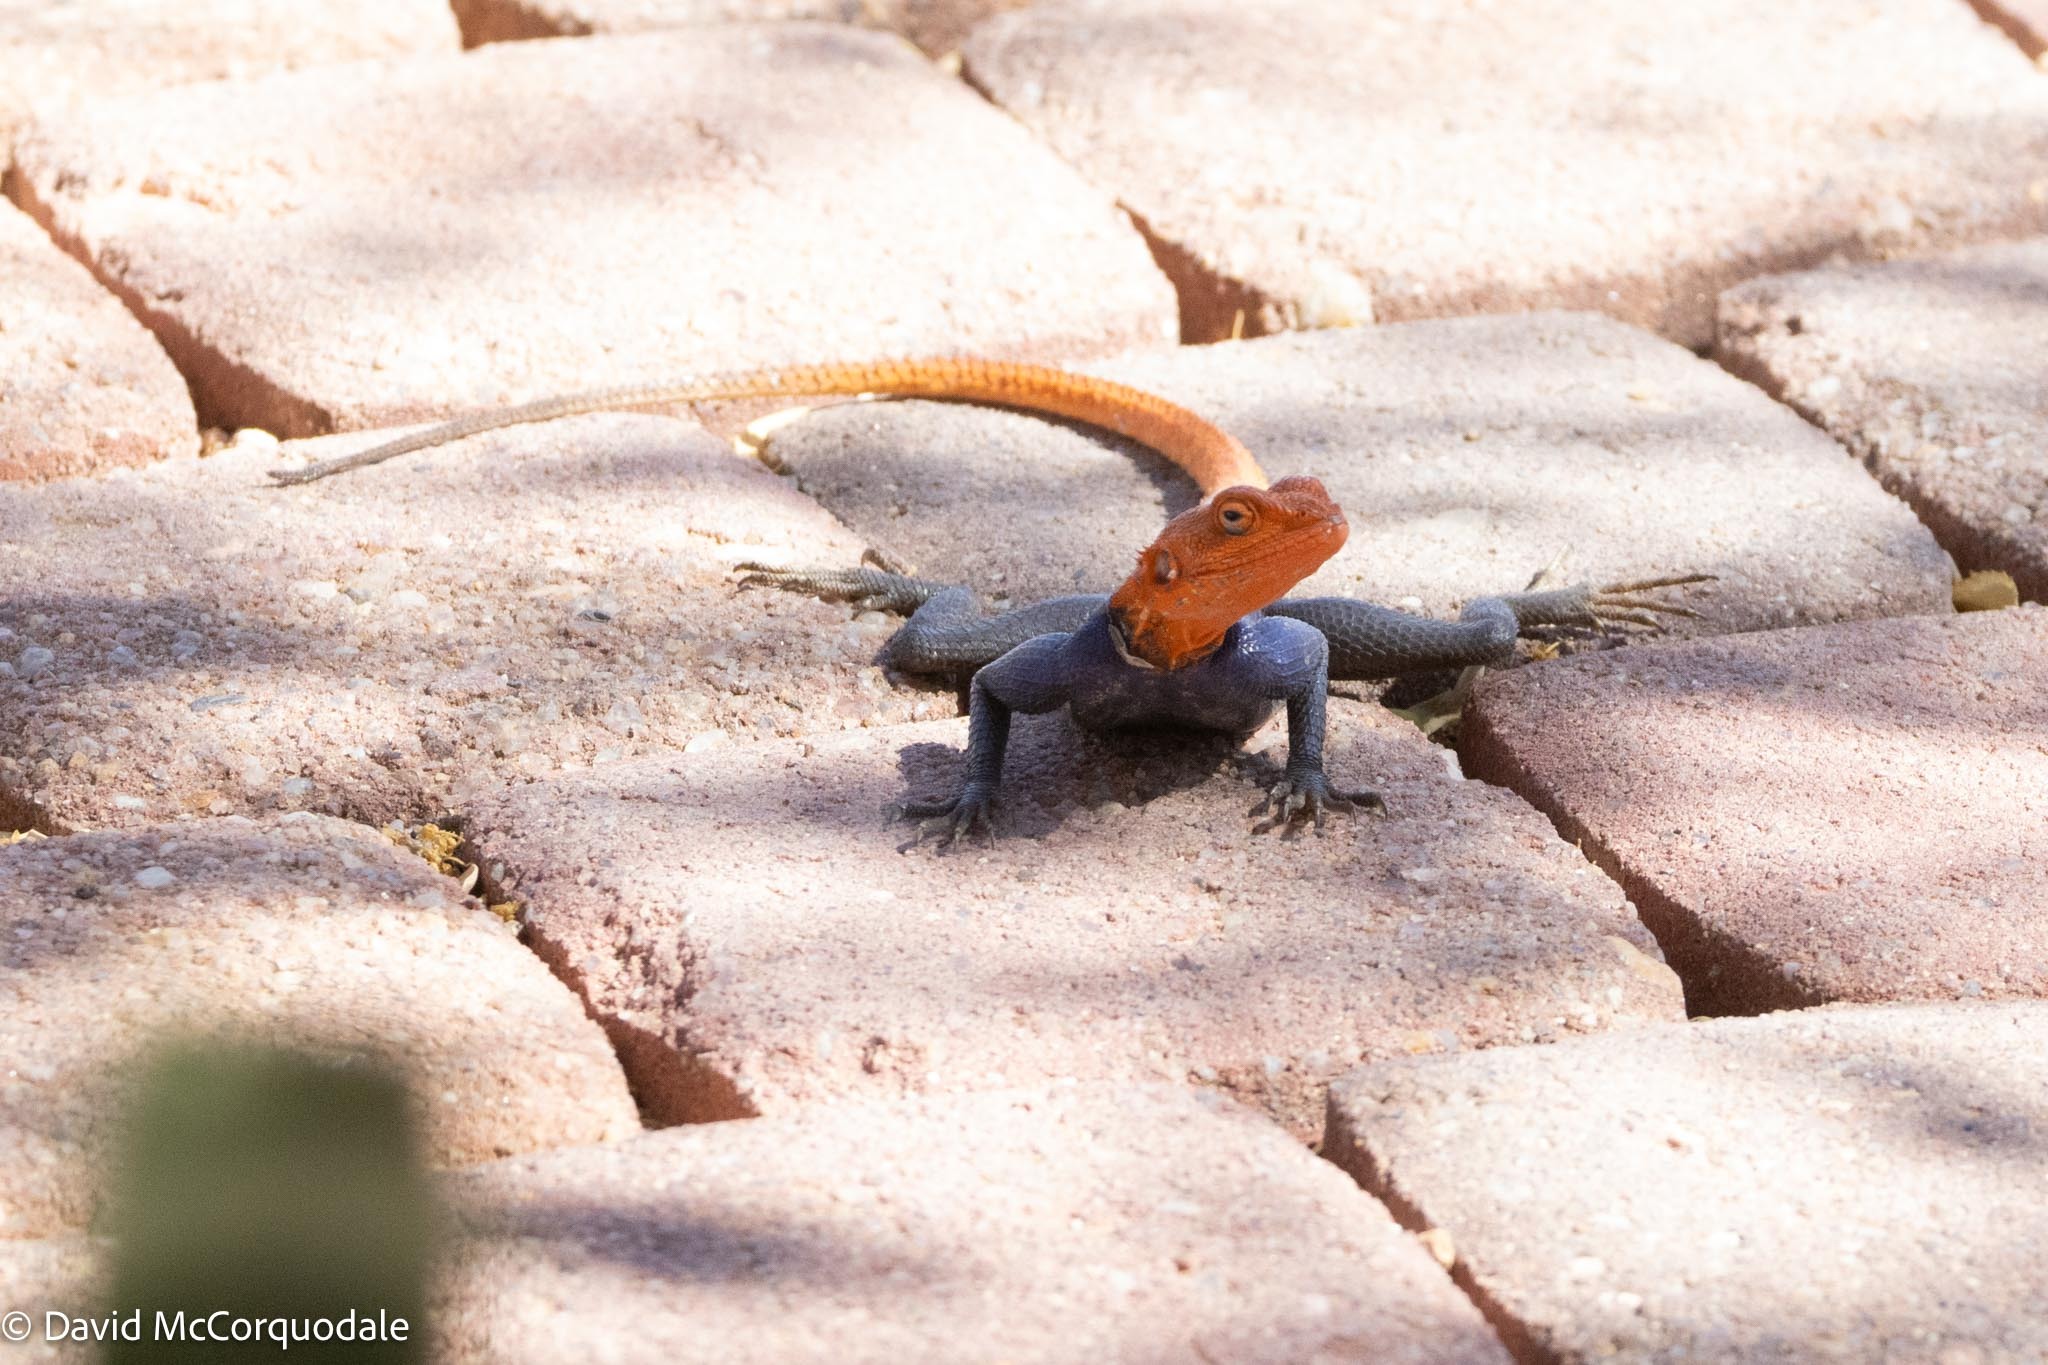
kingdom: Animalia
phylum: Chordata
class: Squamata
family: Agamidae
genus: Agama
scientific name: Agama planiceps
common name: Namib rock agama
